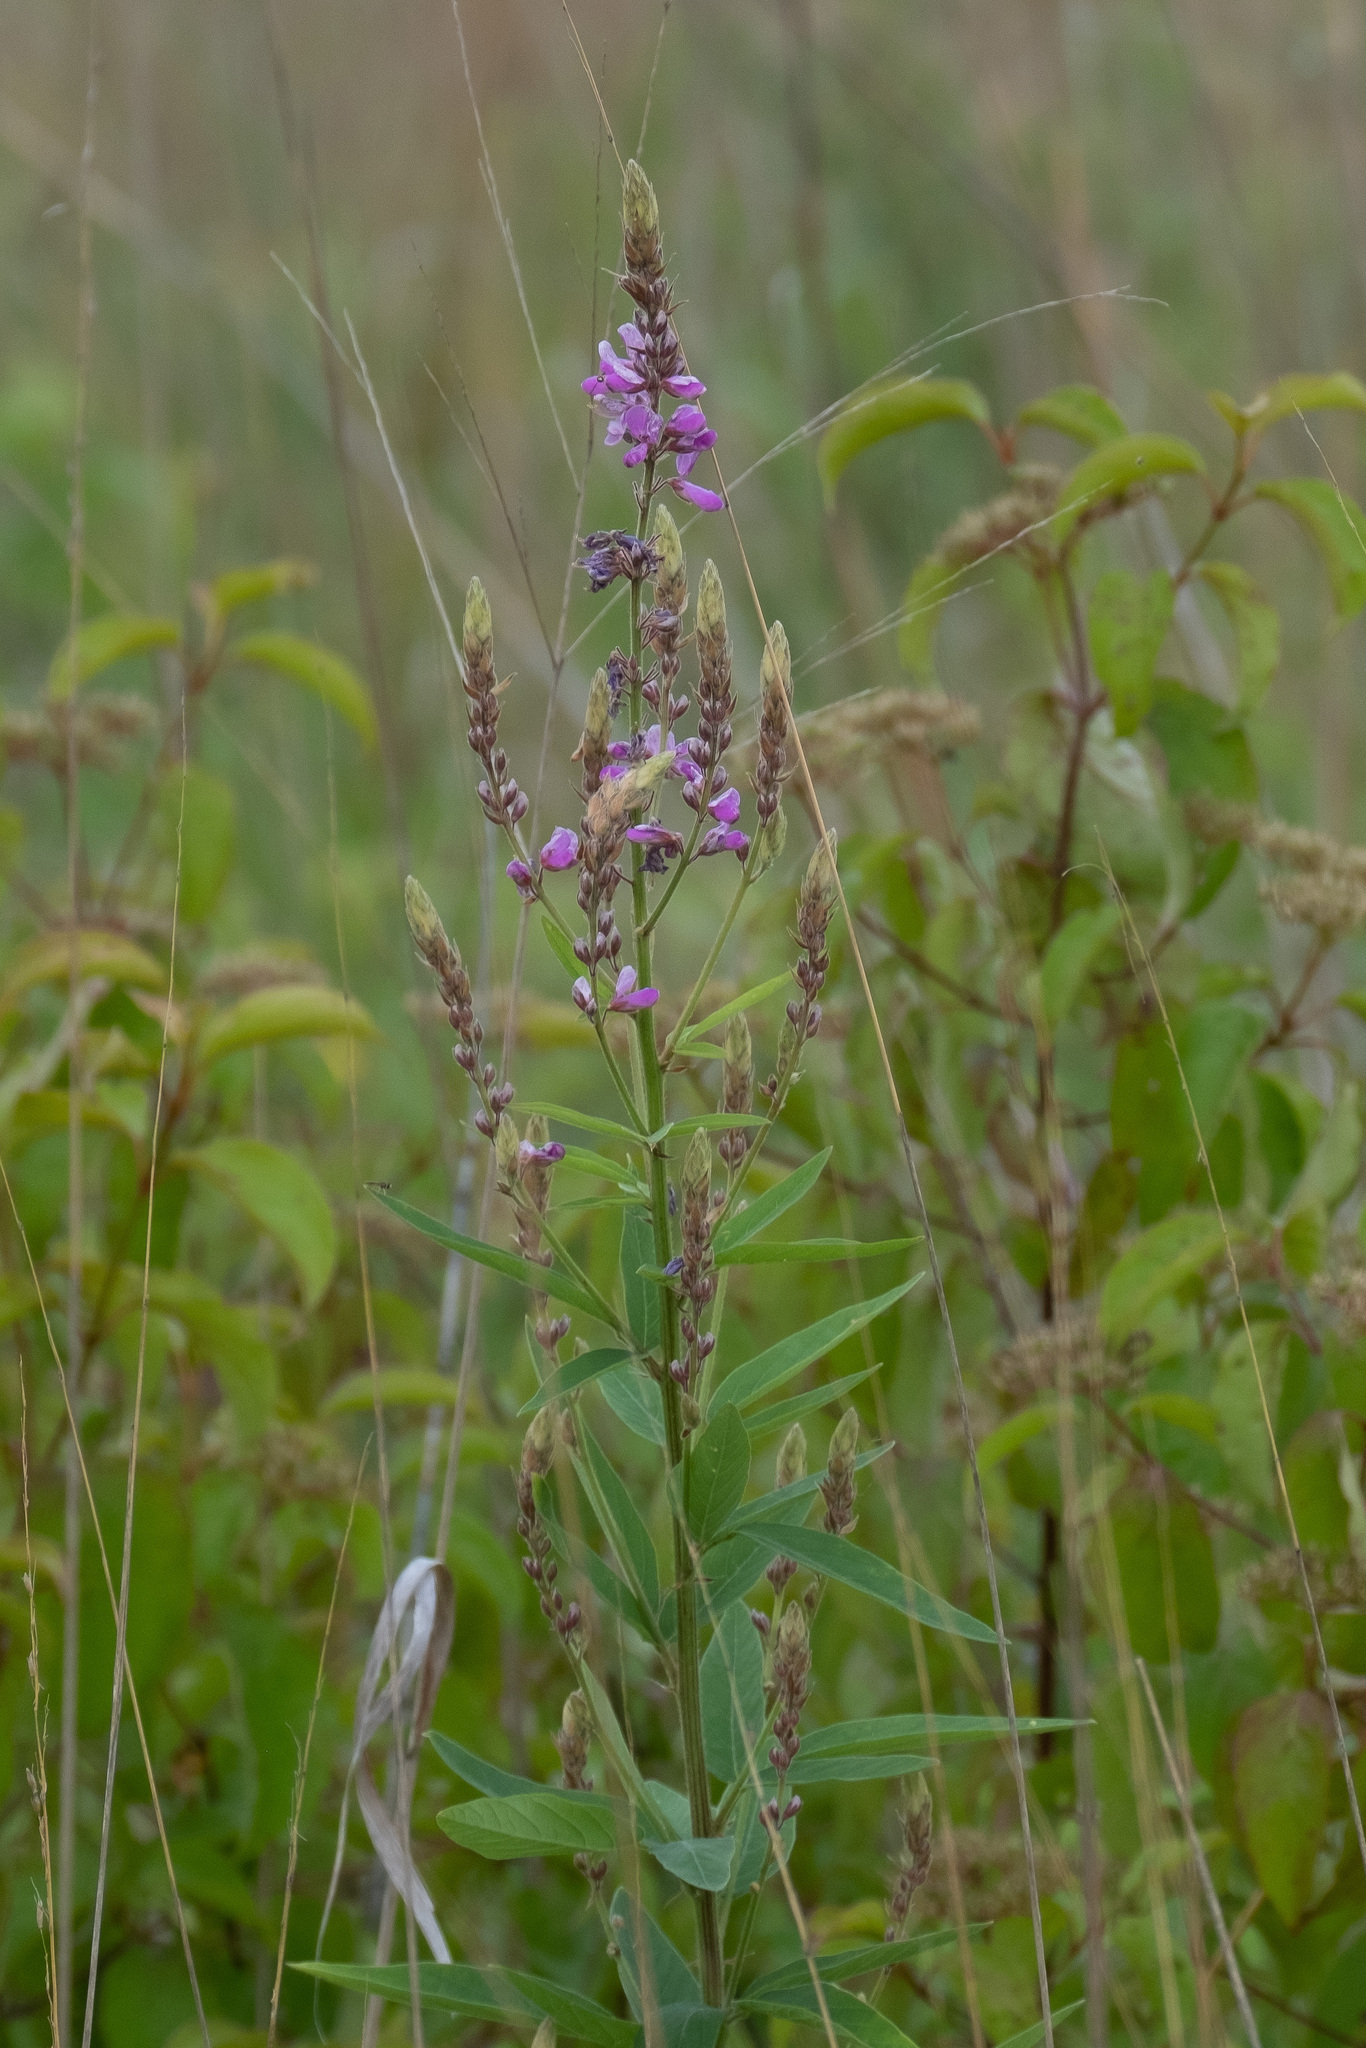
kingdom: Plantae
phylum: Tracheophyta
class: Magnoliopsida
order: Fabales
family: Fabaceae
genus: Desmodium
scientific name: Desmodium canadense
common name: Canada tick-trefoil
